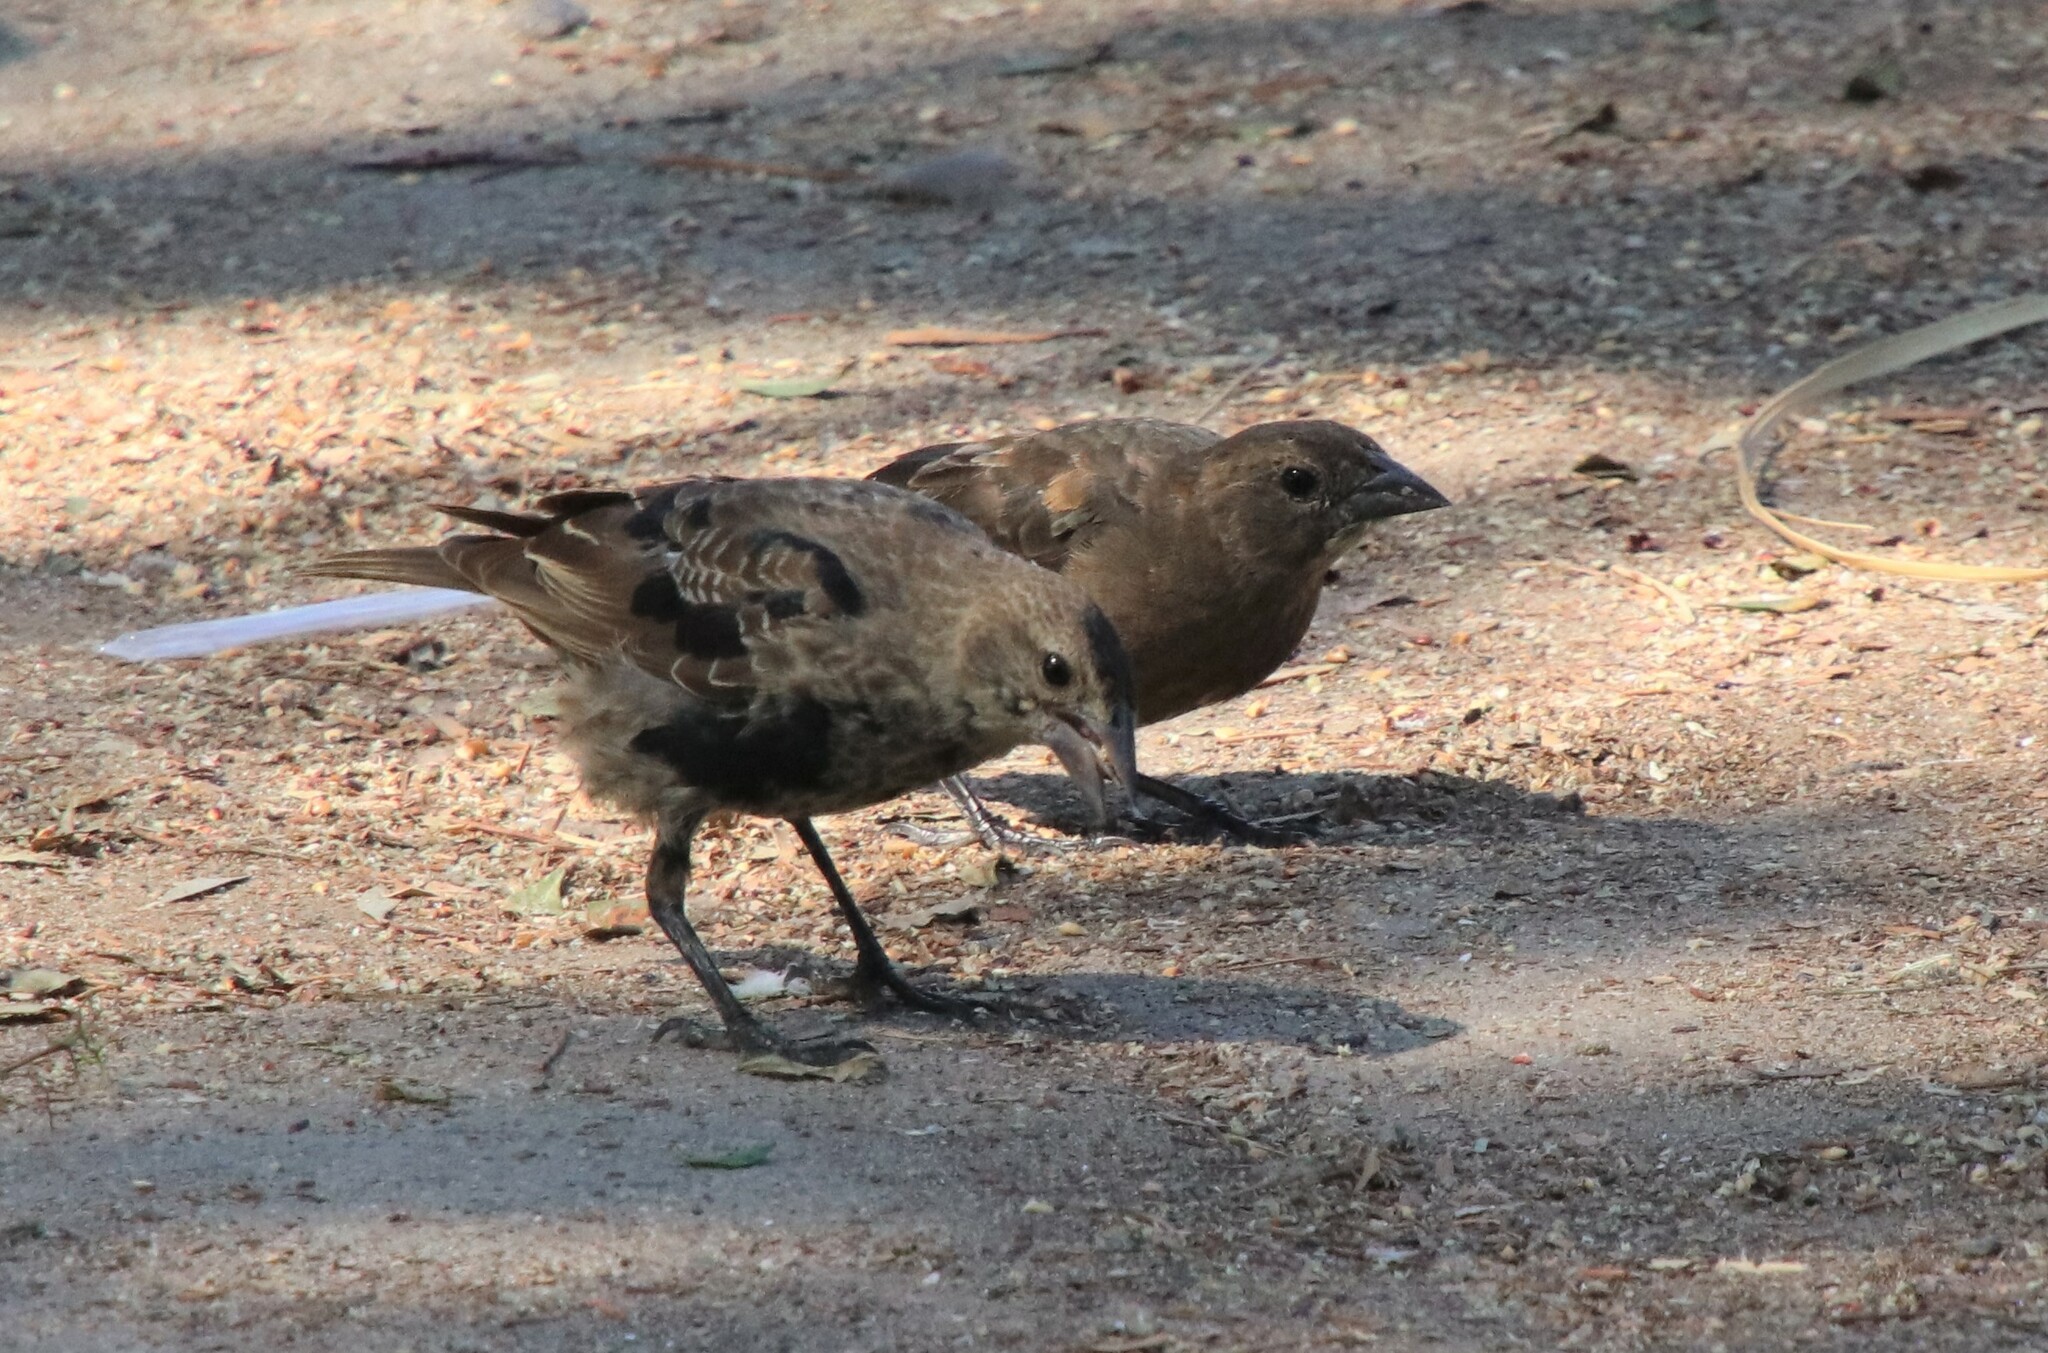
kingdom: Animalia
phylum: Chordata
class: Aves
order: Passeriformes
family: Icteridae
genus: Molothrus
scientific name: Molothrus ater
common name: Brown-headed cowbird
